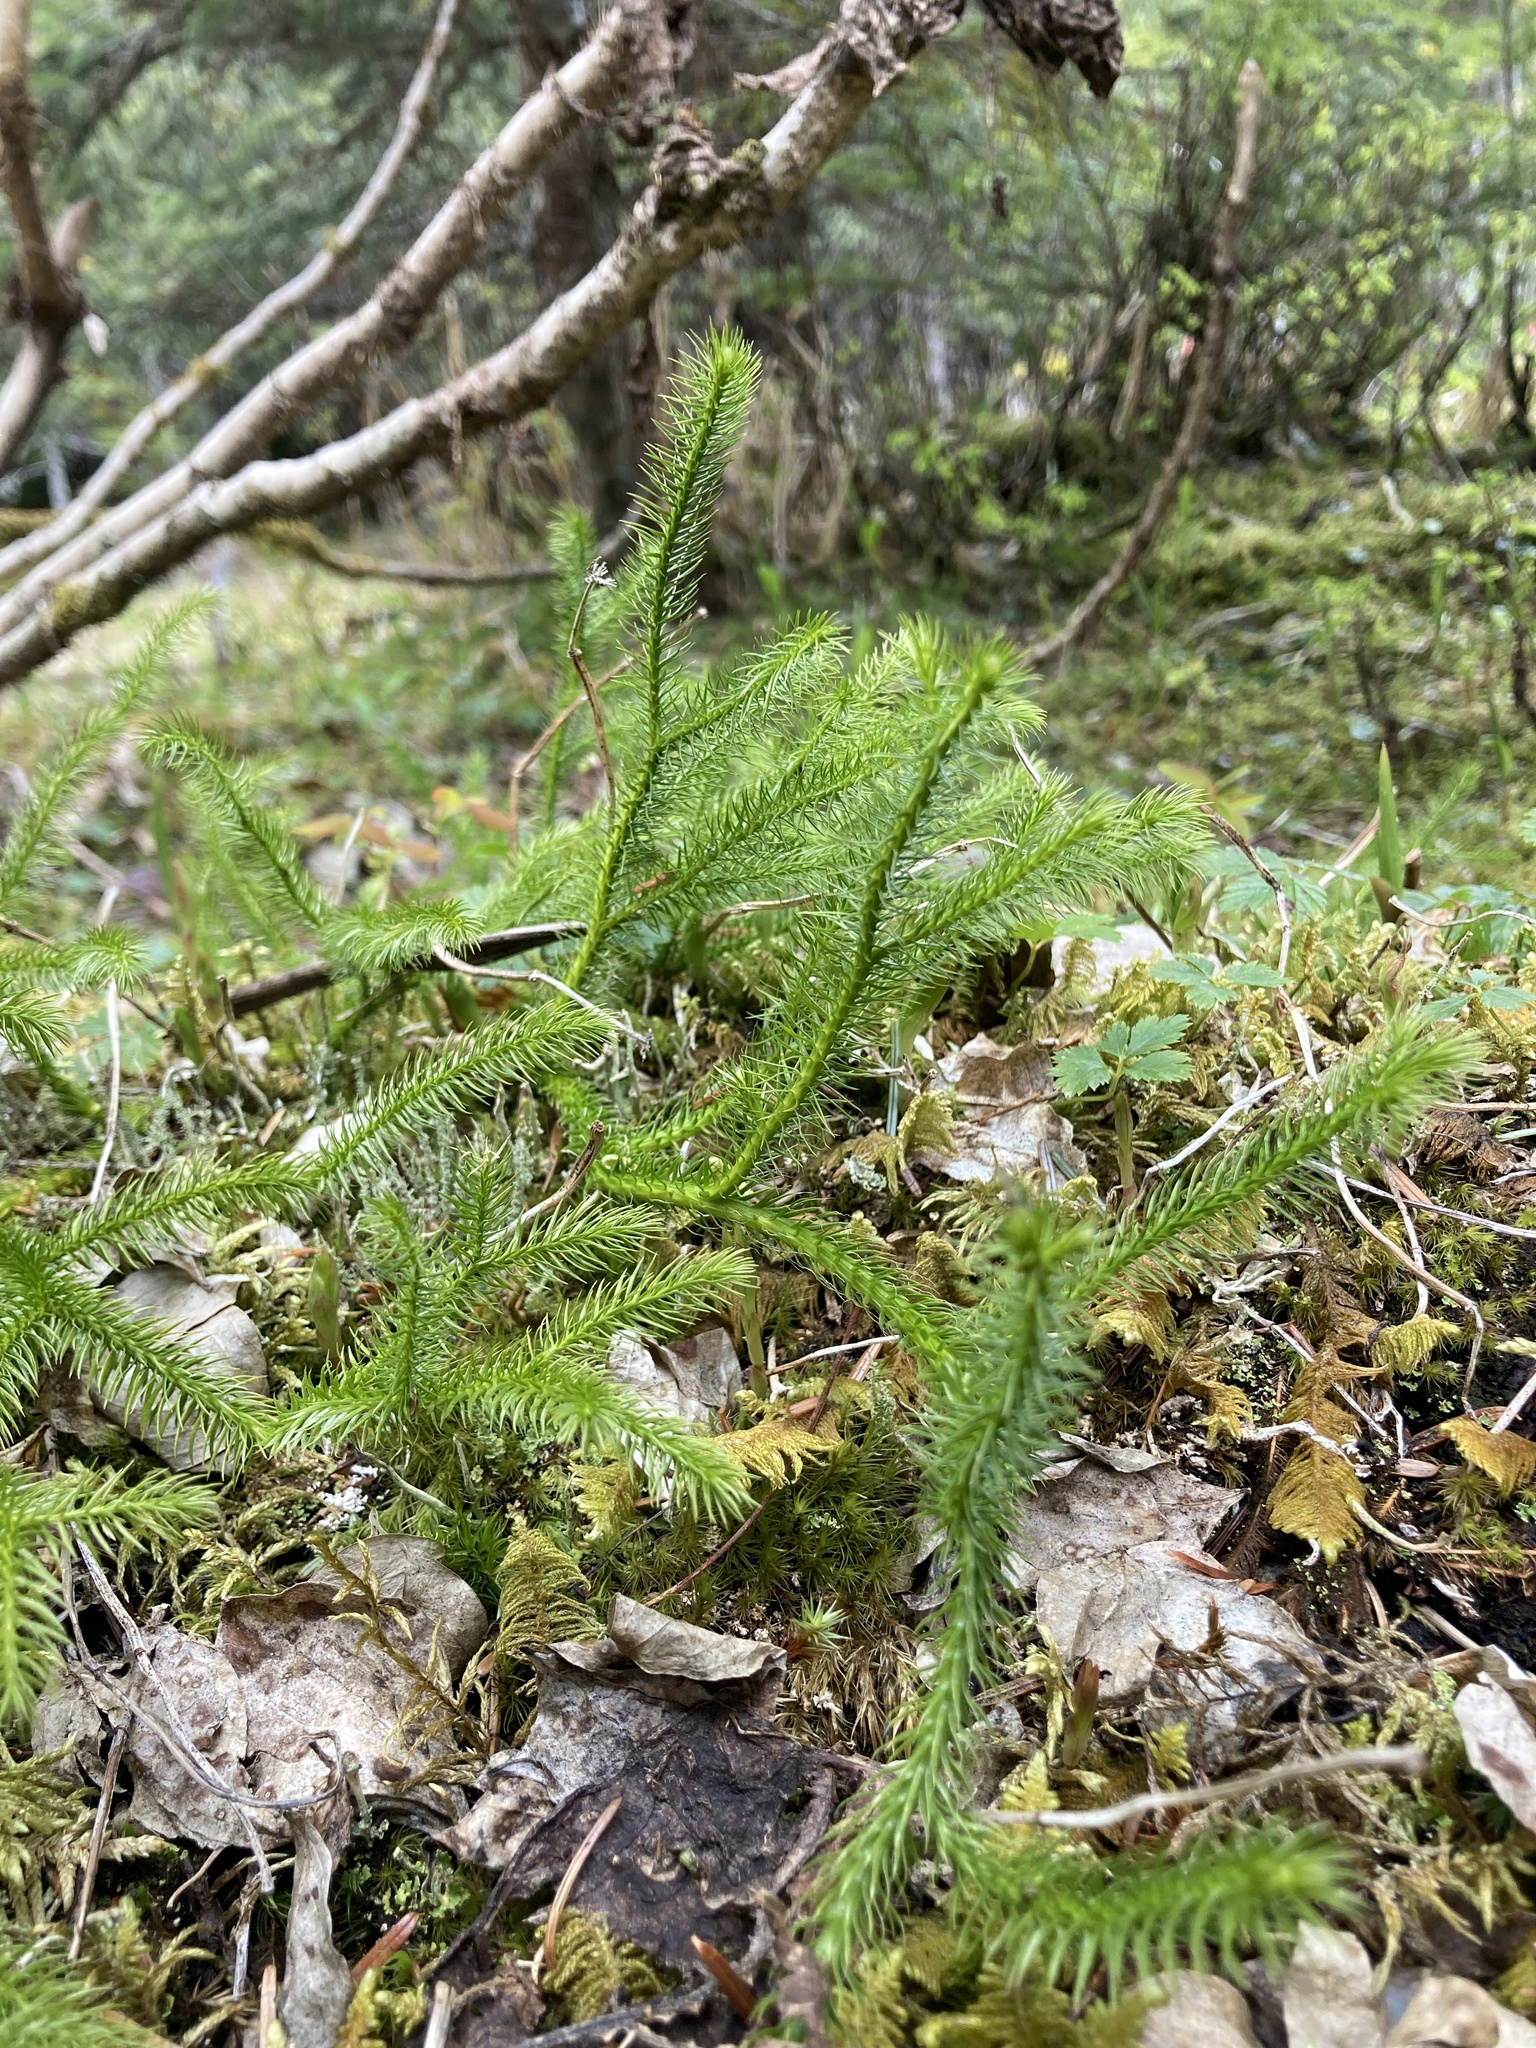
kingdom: Plantae
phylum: Tracheophyta
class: Lycopodiopsida
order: Lycopodiales
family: Lycopodiaceae
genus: Lycopodium
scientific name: Lycopodium clavatum
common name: Stag's-horn clubmoss
